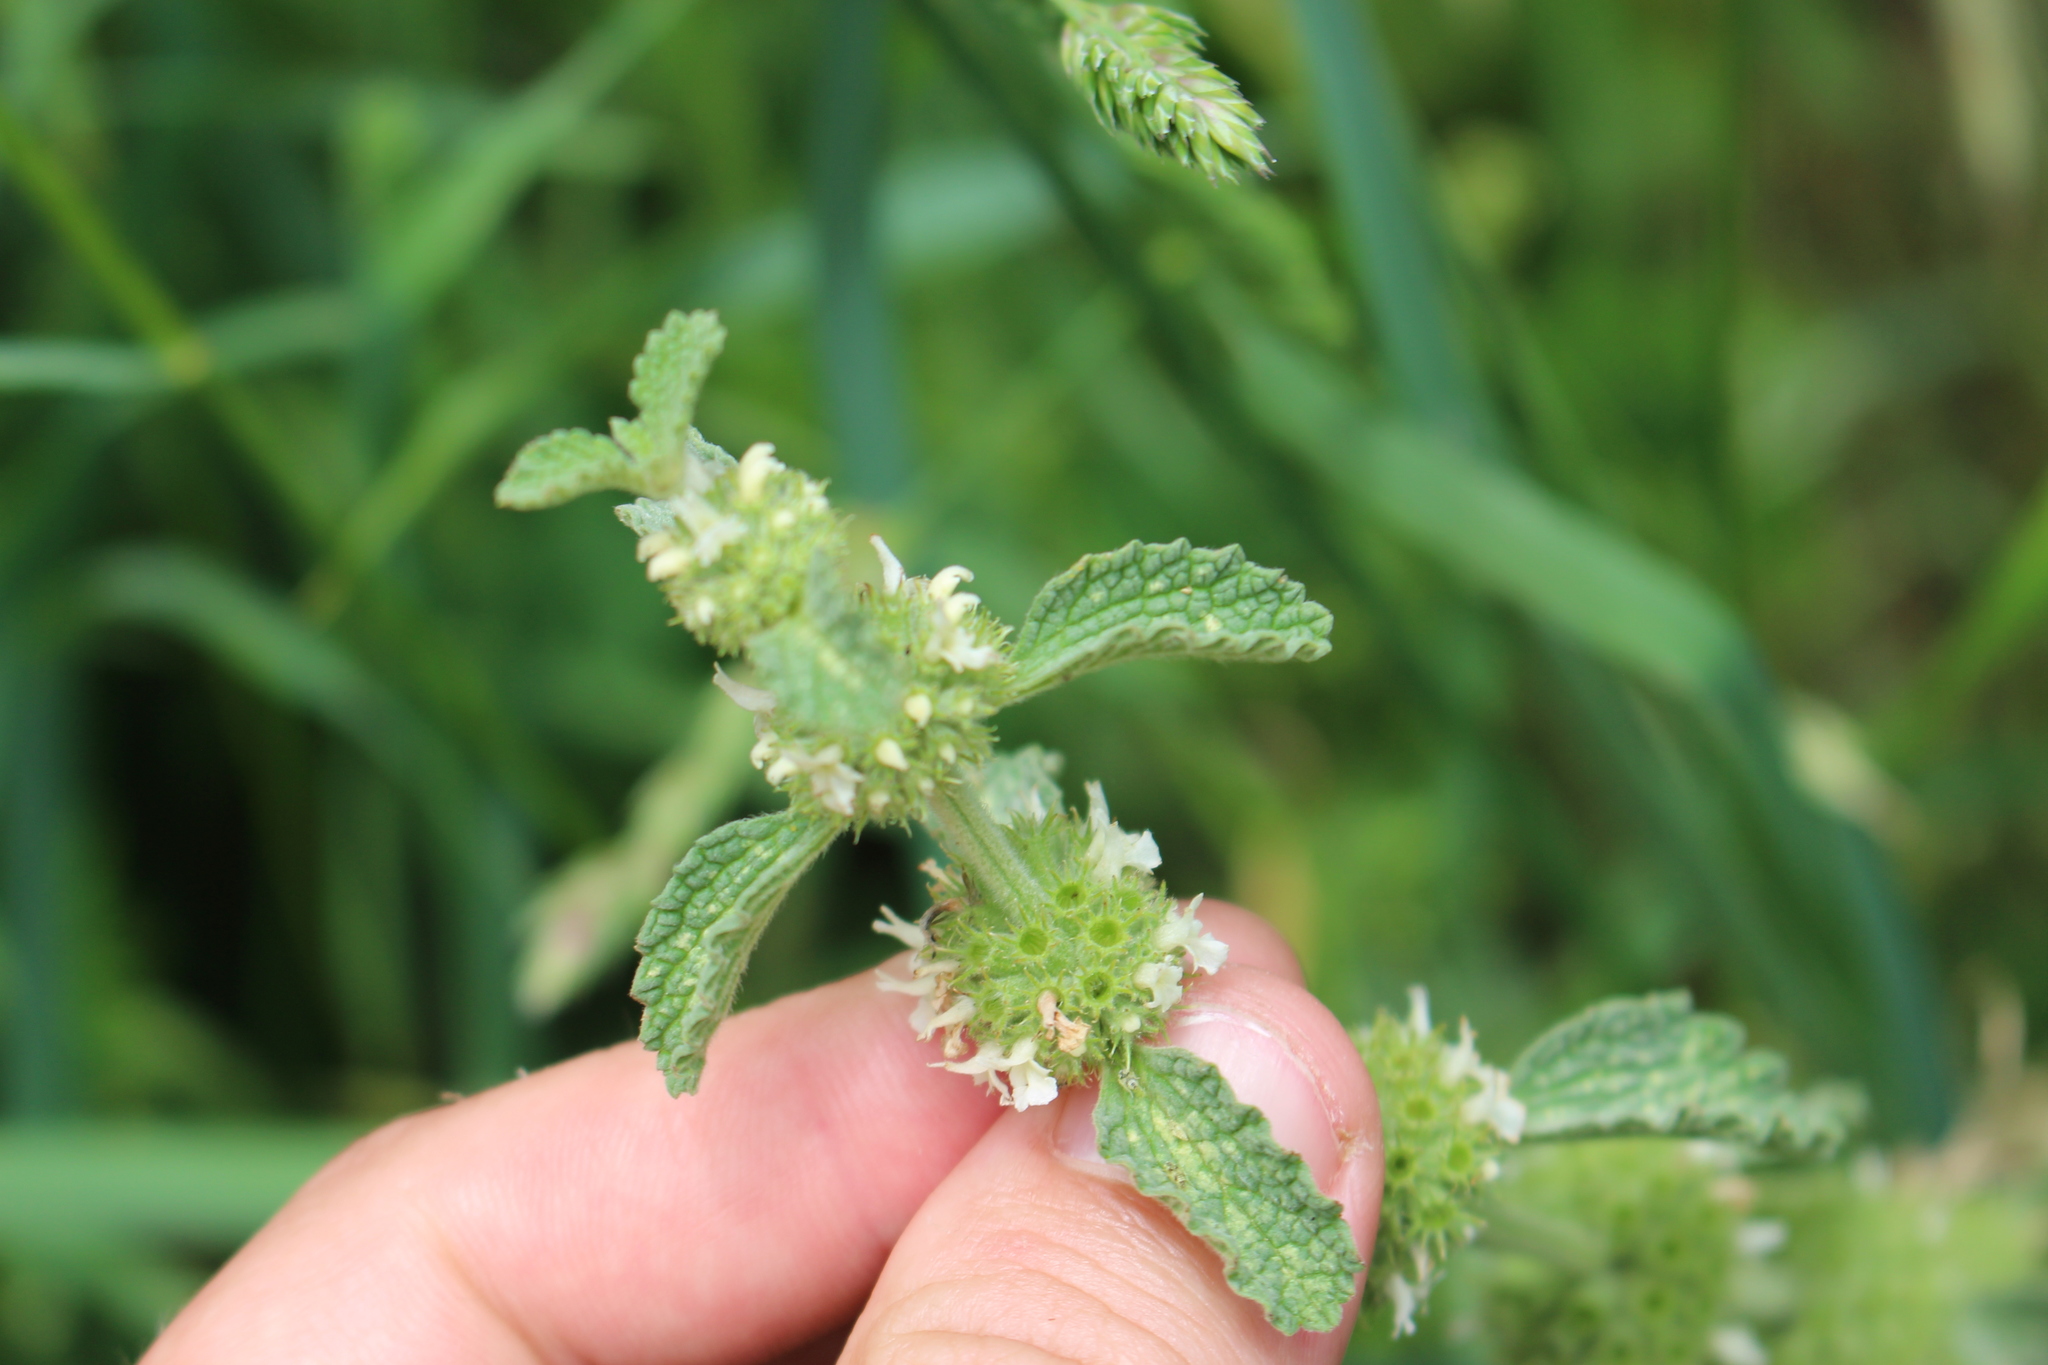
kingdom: Plantae
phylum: Tracheophyta
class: Magnoliopsida
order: Lamiales
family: Lamiaceae
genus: Marrubium
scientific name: Marrubium vulgare
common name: Horehound
